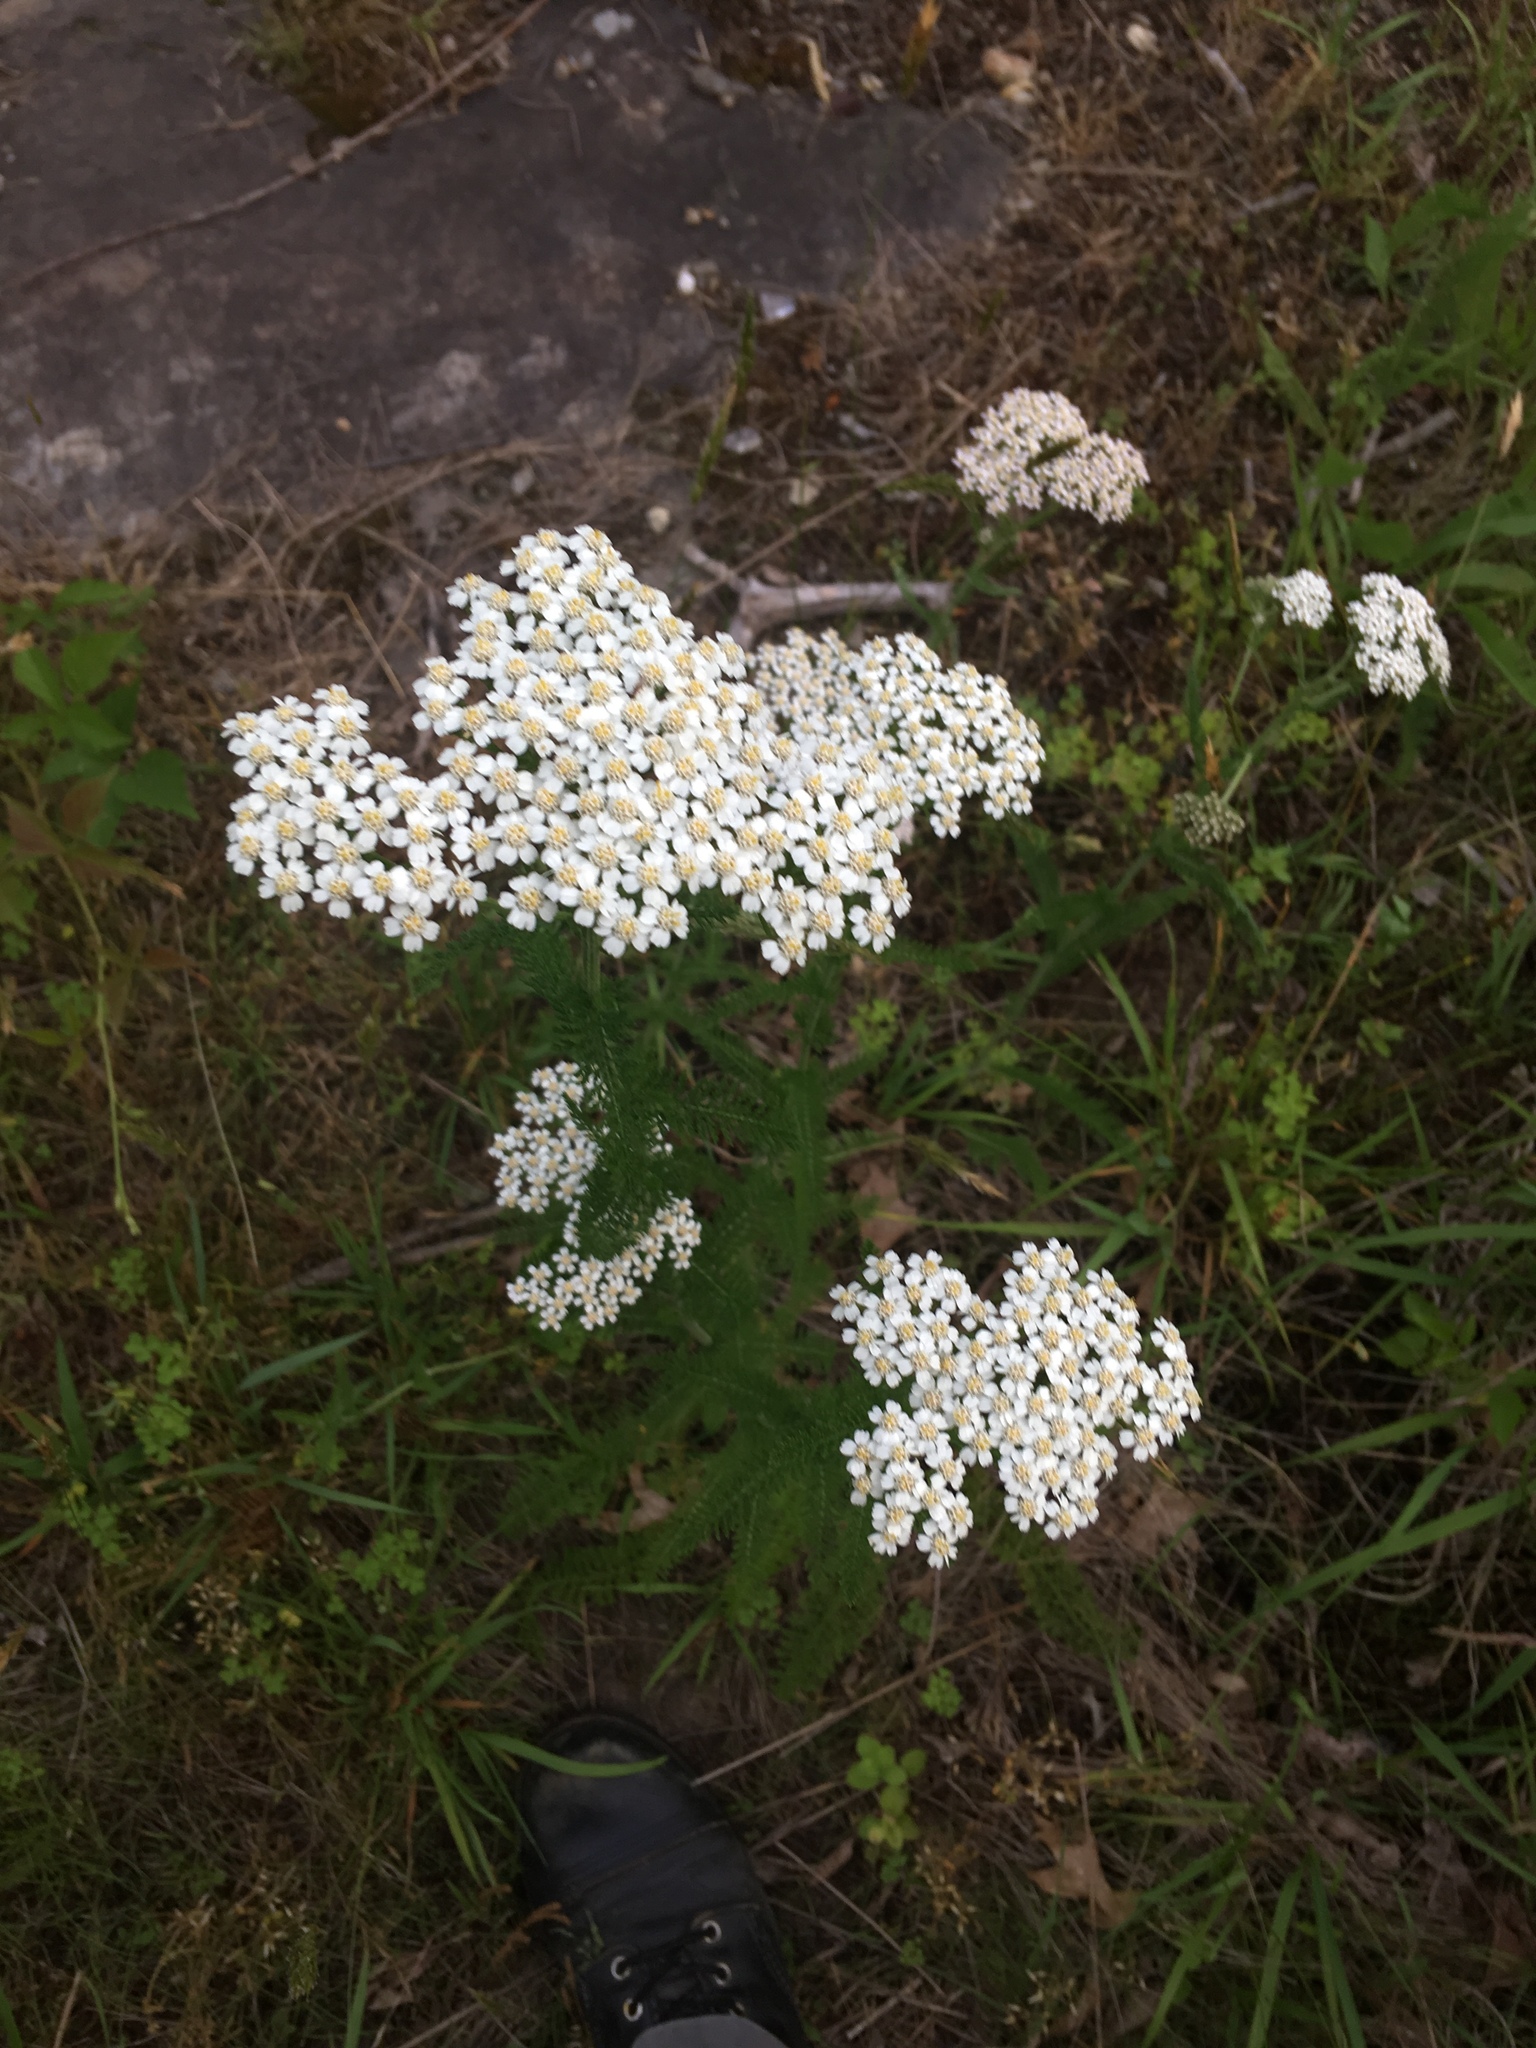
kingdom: Plantae
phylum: Tracheophyta
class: Magnoliopsida
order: Asterales
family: Asteraceae
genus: Achillea
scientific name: Achillea millefolium
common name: Yarrow
